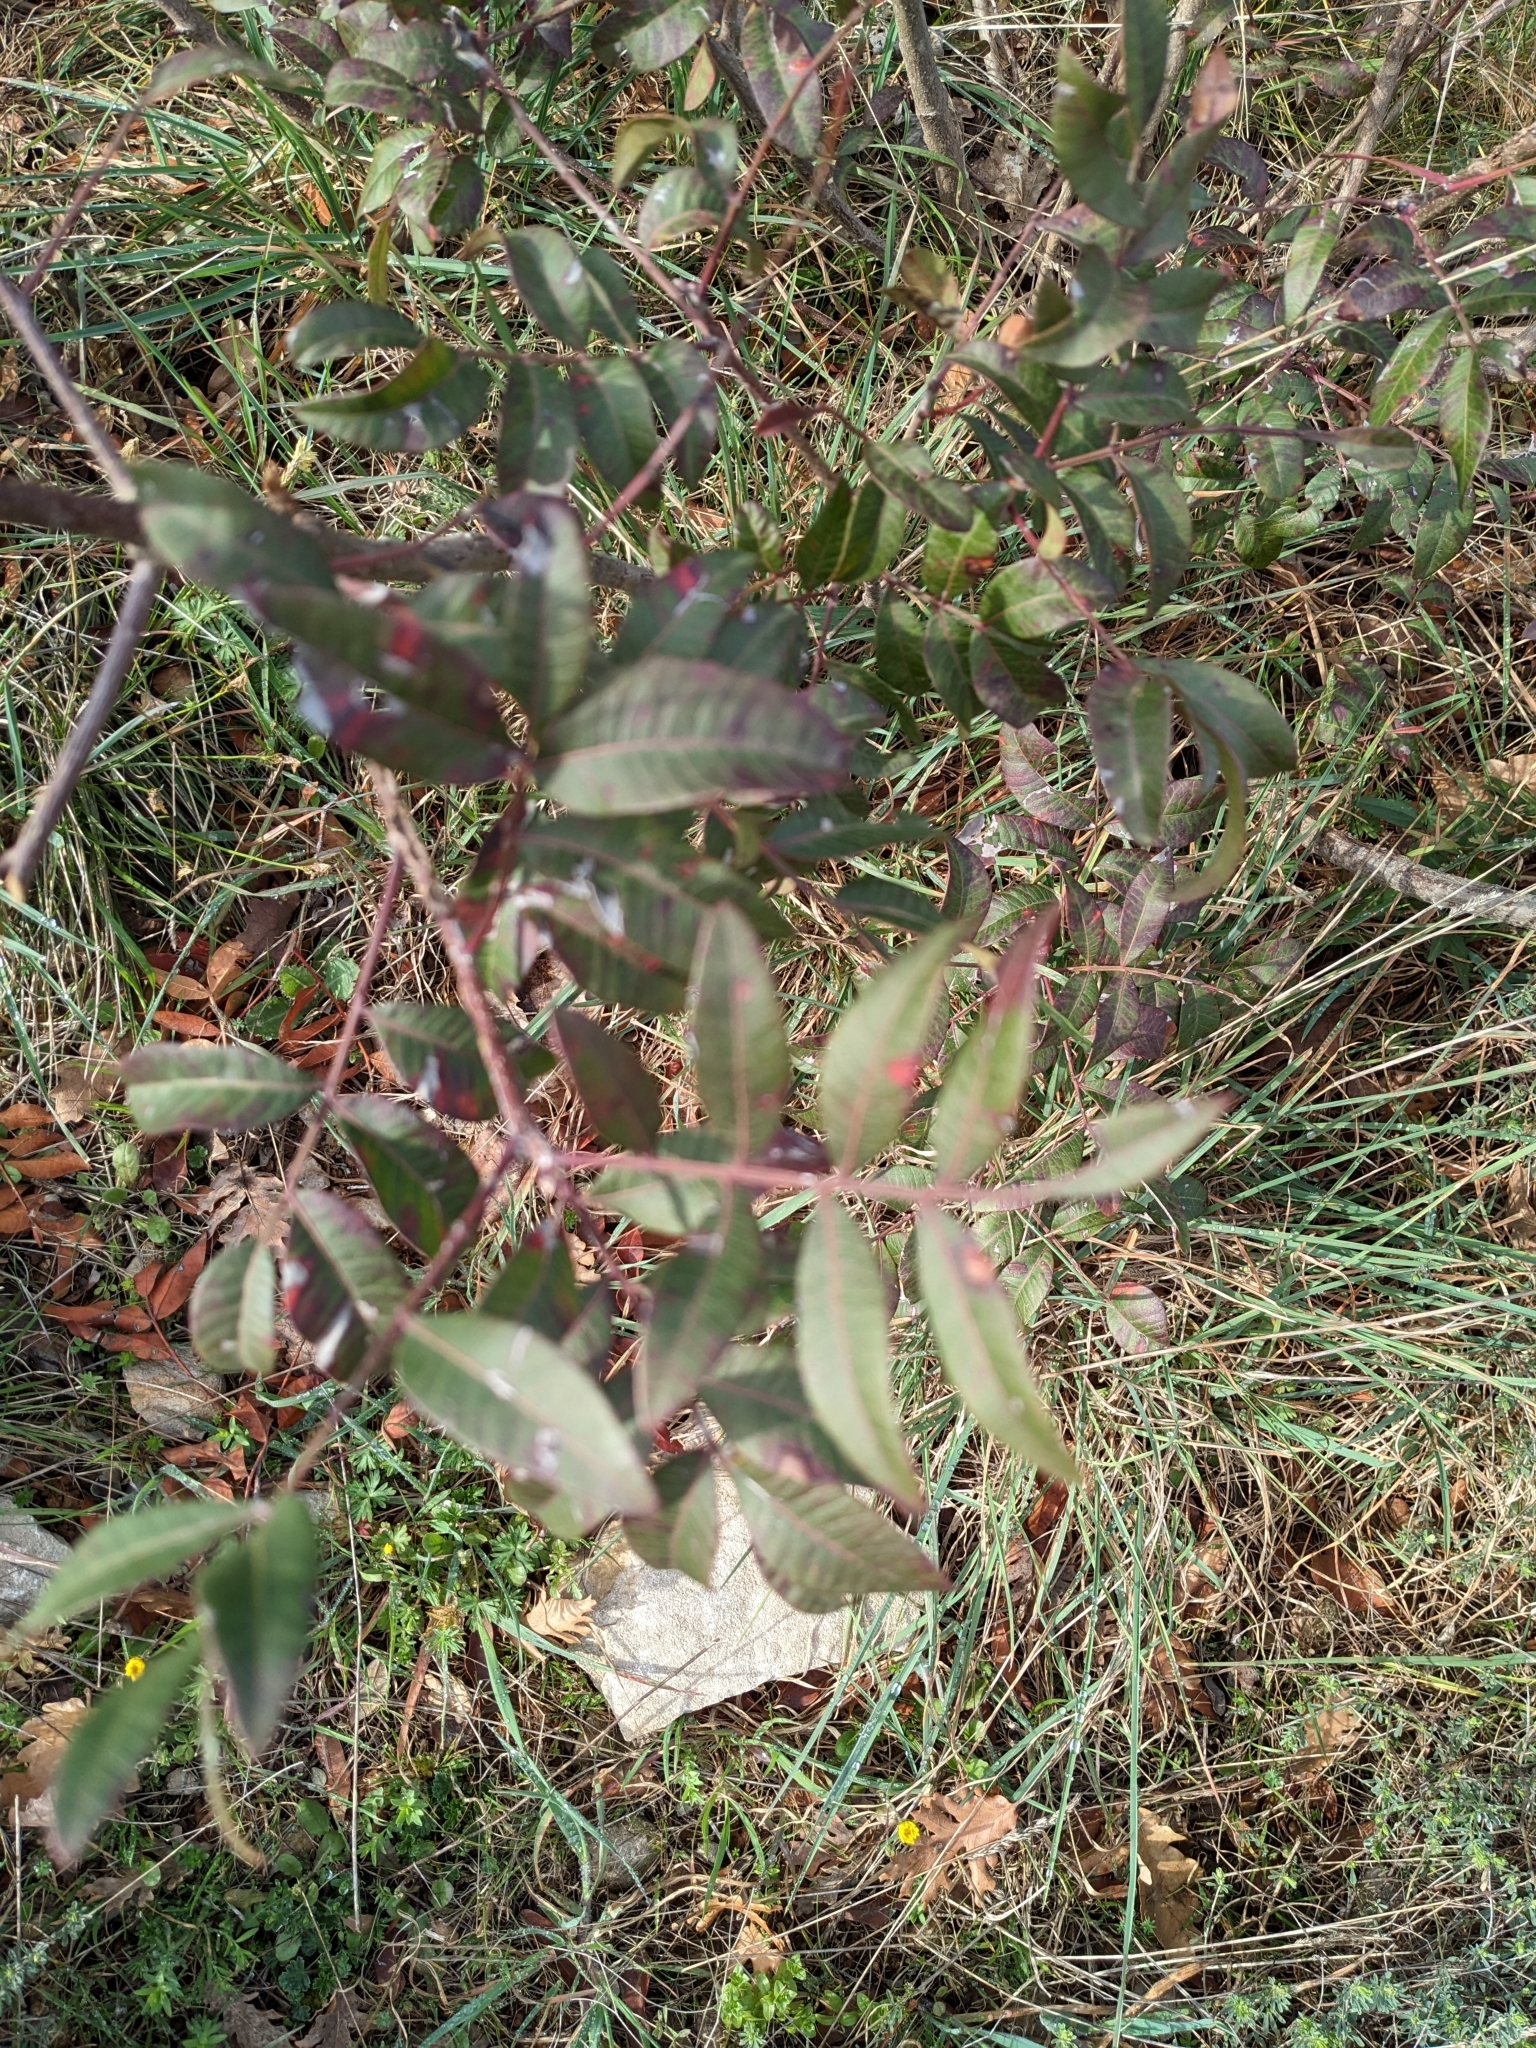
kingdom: Plantae
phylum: Tracheophyta
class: Magnoliopsida
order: Sapindales
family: Anacardiaceae
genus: Pistacia
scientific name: Pistacia saportae
